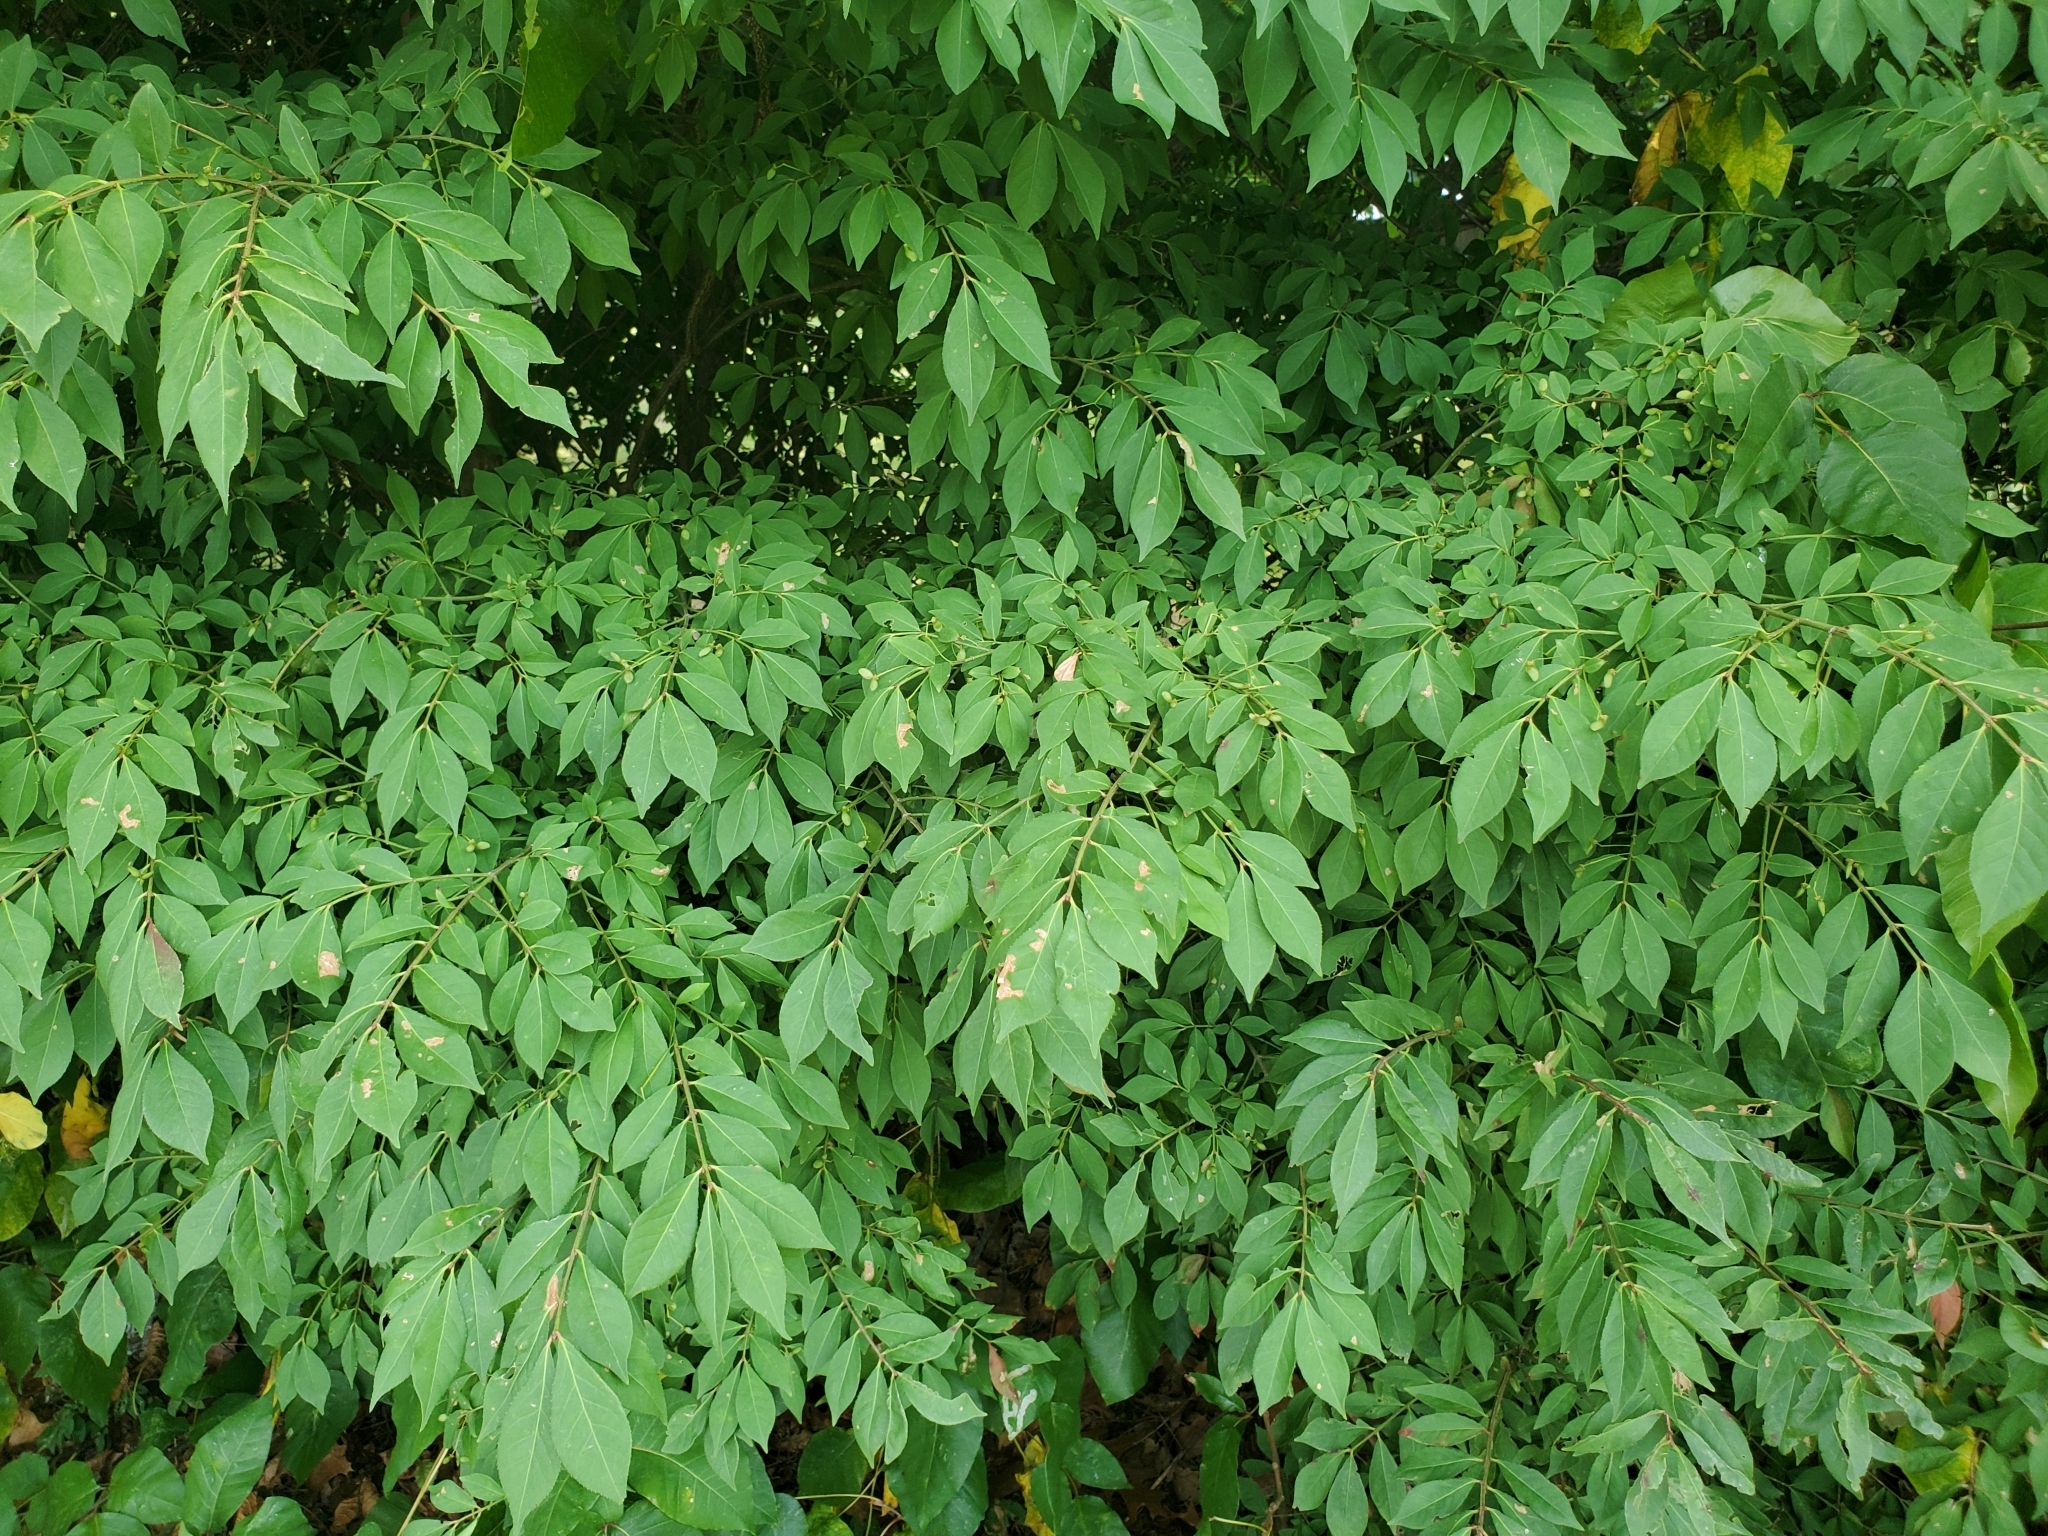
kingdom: Plantae
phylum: Tracheophyta
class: Magnoliopsida
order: Celastrales
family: Celastraceae
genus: Euonymus
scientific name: Euonymus alatus
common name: Winged euonymus
